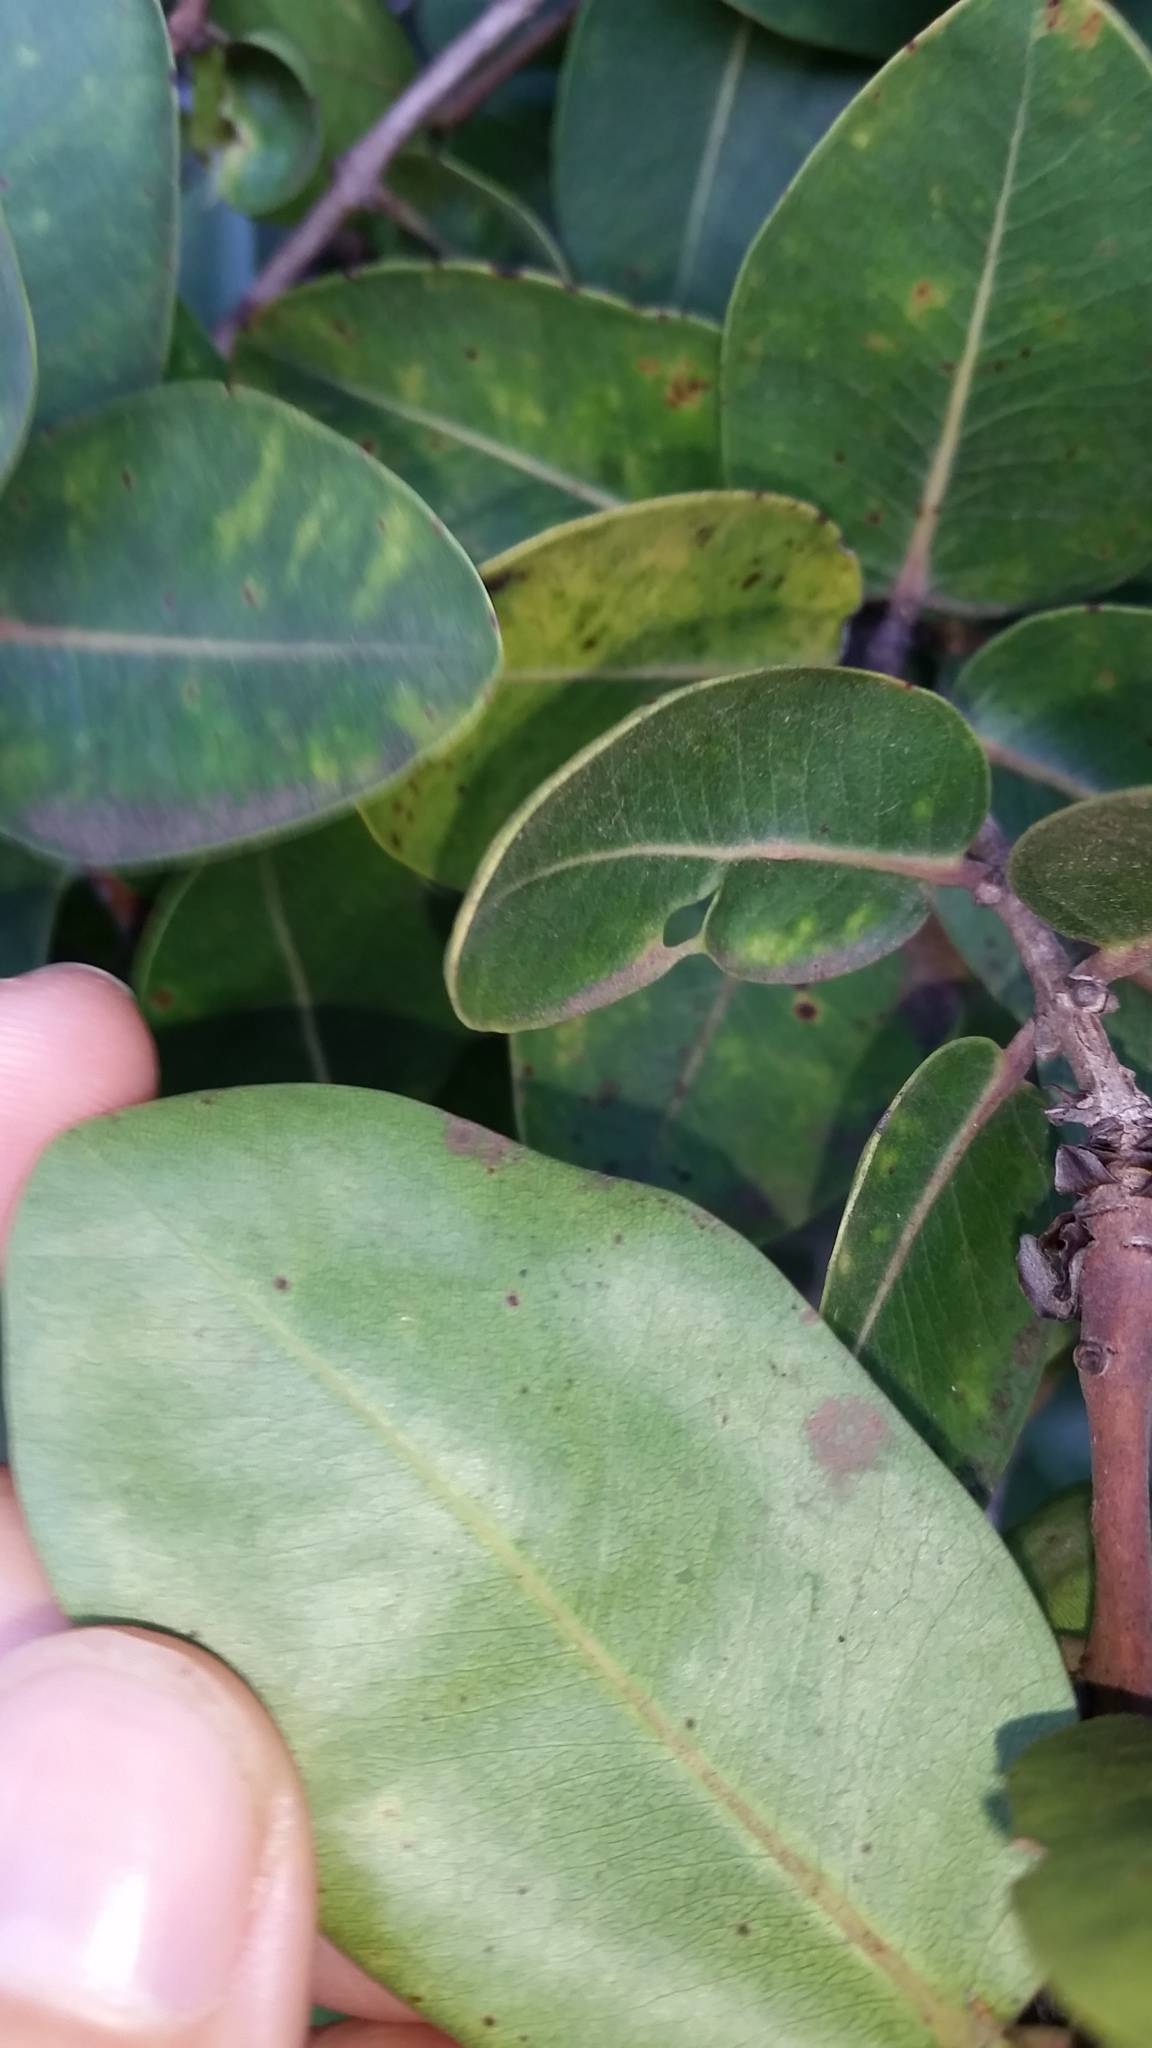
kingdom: Plantae
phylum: Tracheophyta
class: Magnoliopsida
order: Myrtales
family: Myrtaceae
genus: Metrosideros
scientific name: Metrosideros polymorpha
